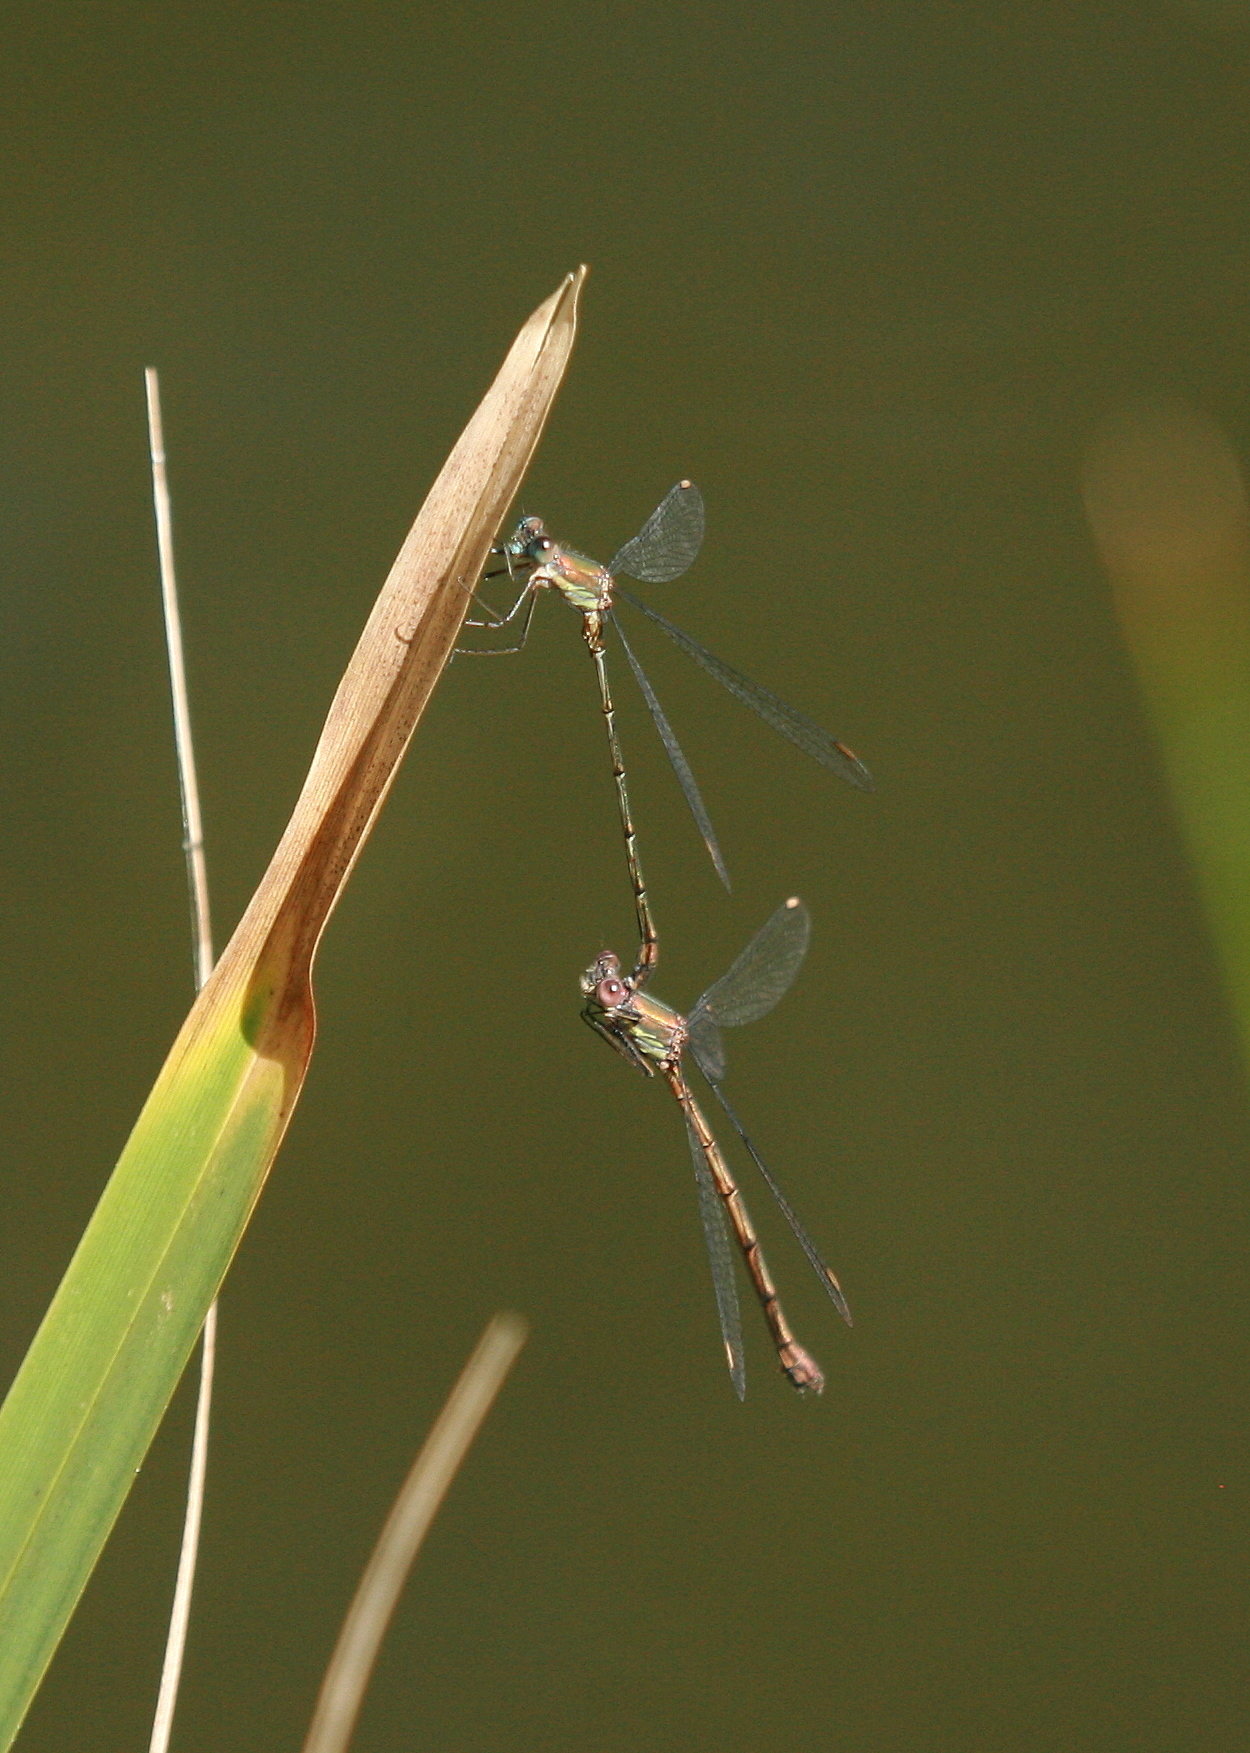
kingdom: Animalia
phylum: Arthropoda
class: Insecta
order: Odonata
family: Lestidae
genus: Chalcolestes
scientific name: Chalcolestes viridis
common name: Green emerald damselfly
